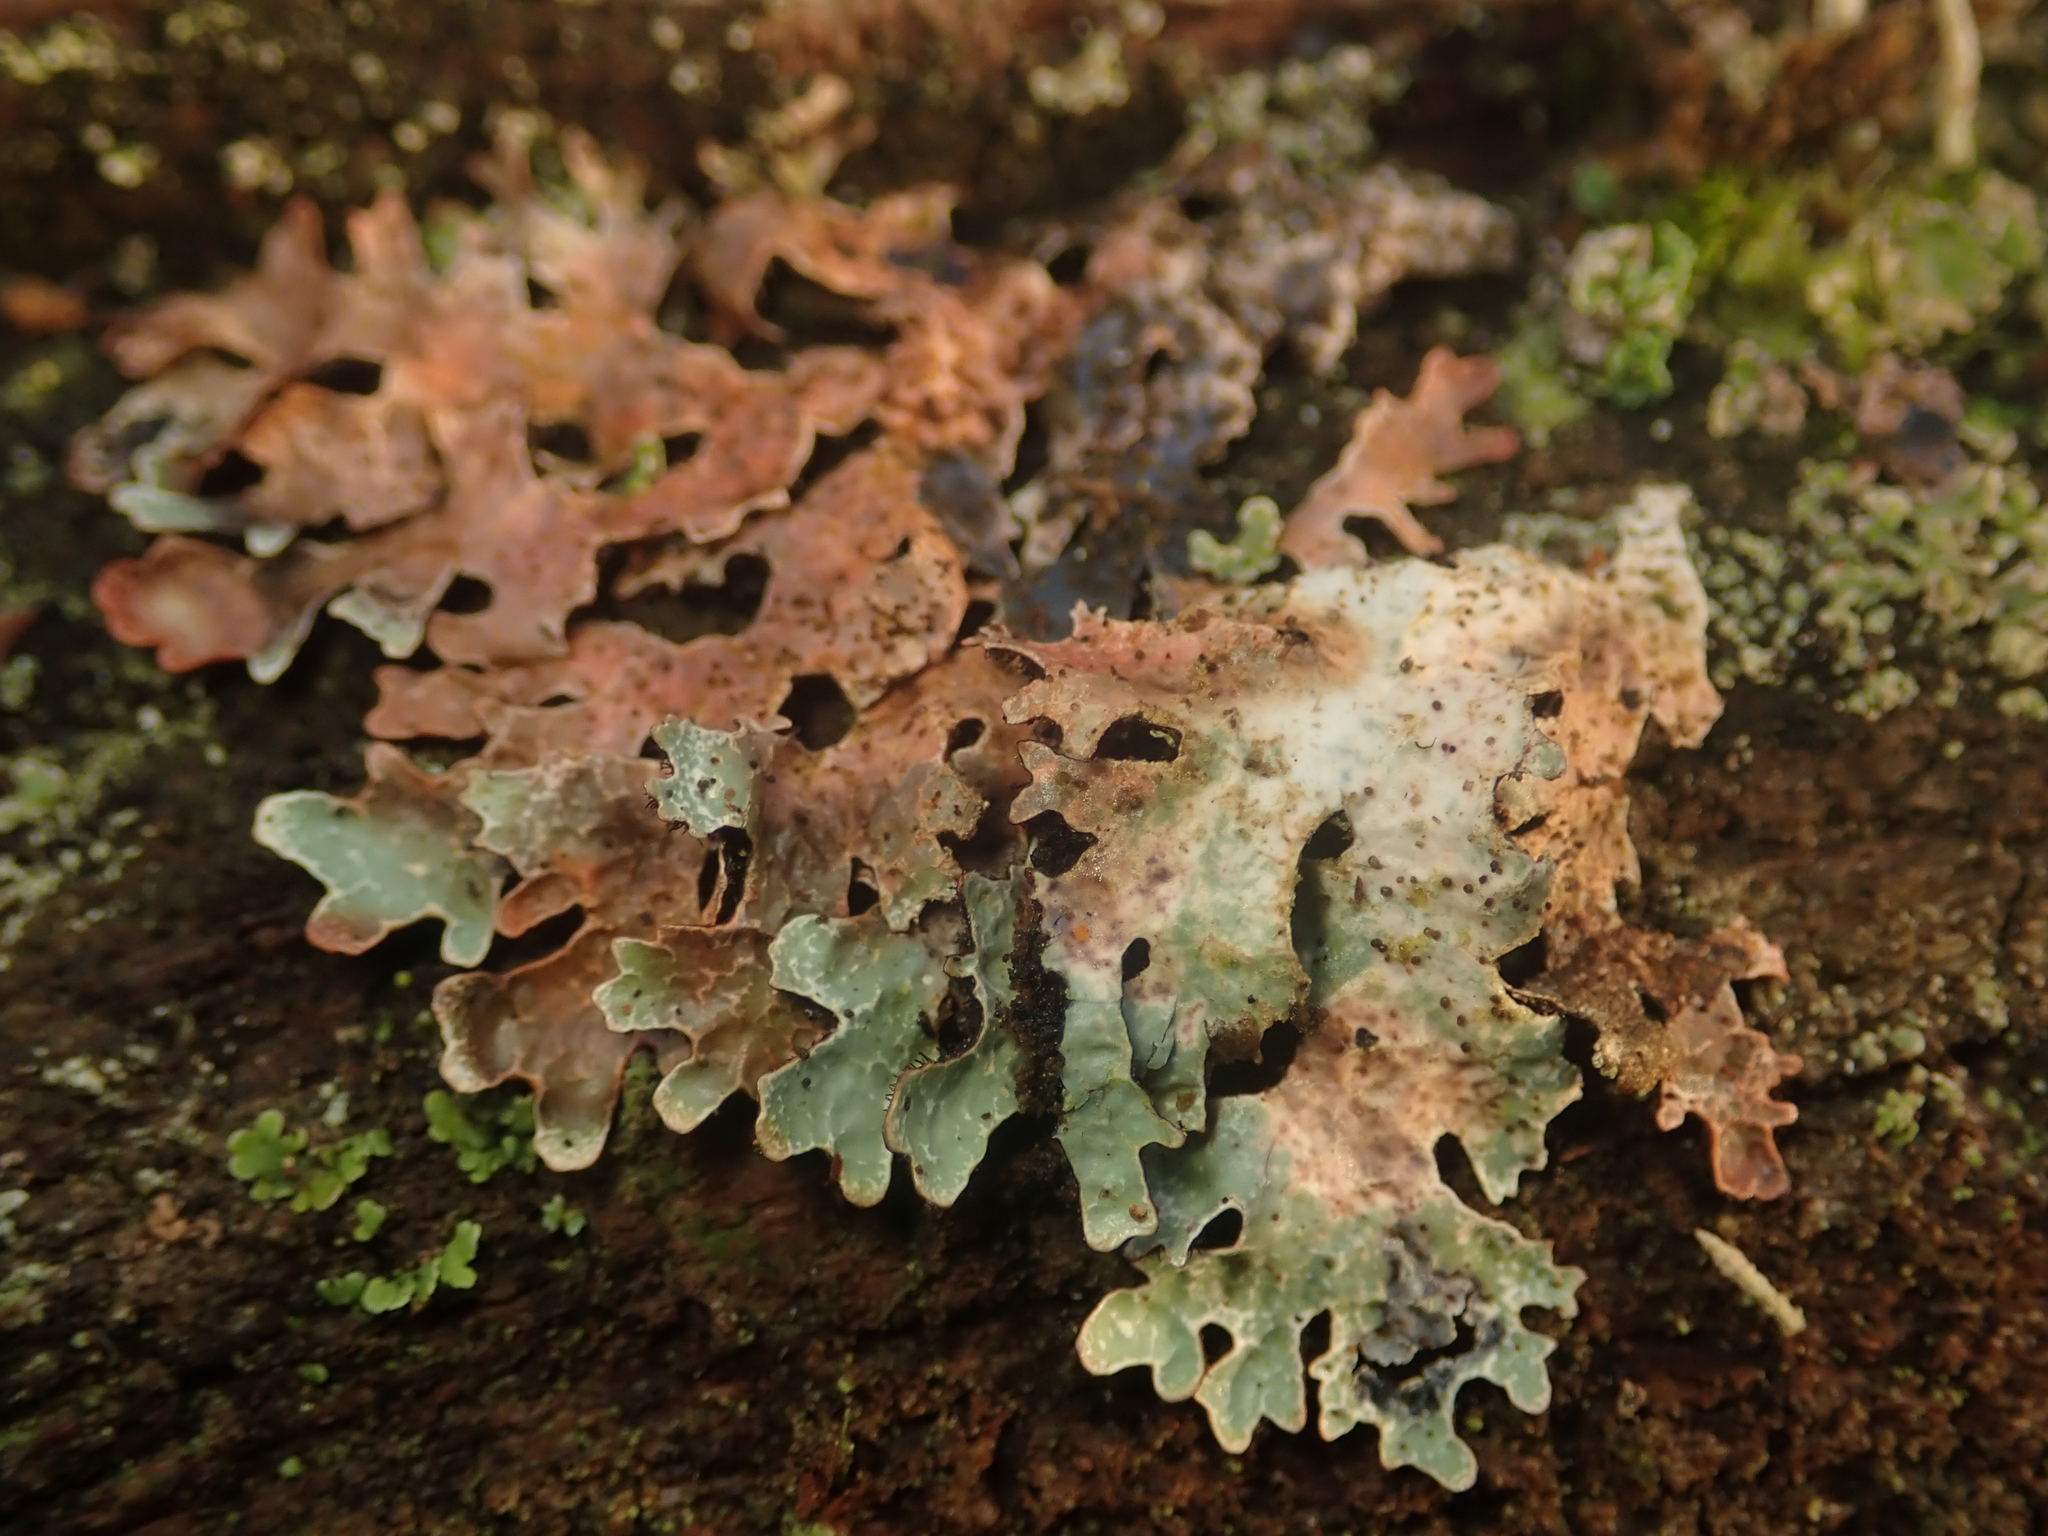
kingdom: Fungi
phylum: Ascomycota
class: Lecanoromycetes
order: Lecanorales
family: Parmeliaceae
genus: Parmelia
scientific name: Parmelia sulcata
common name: Netted shield lichen
